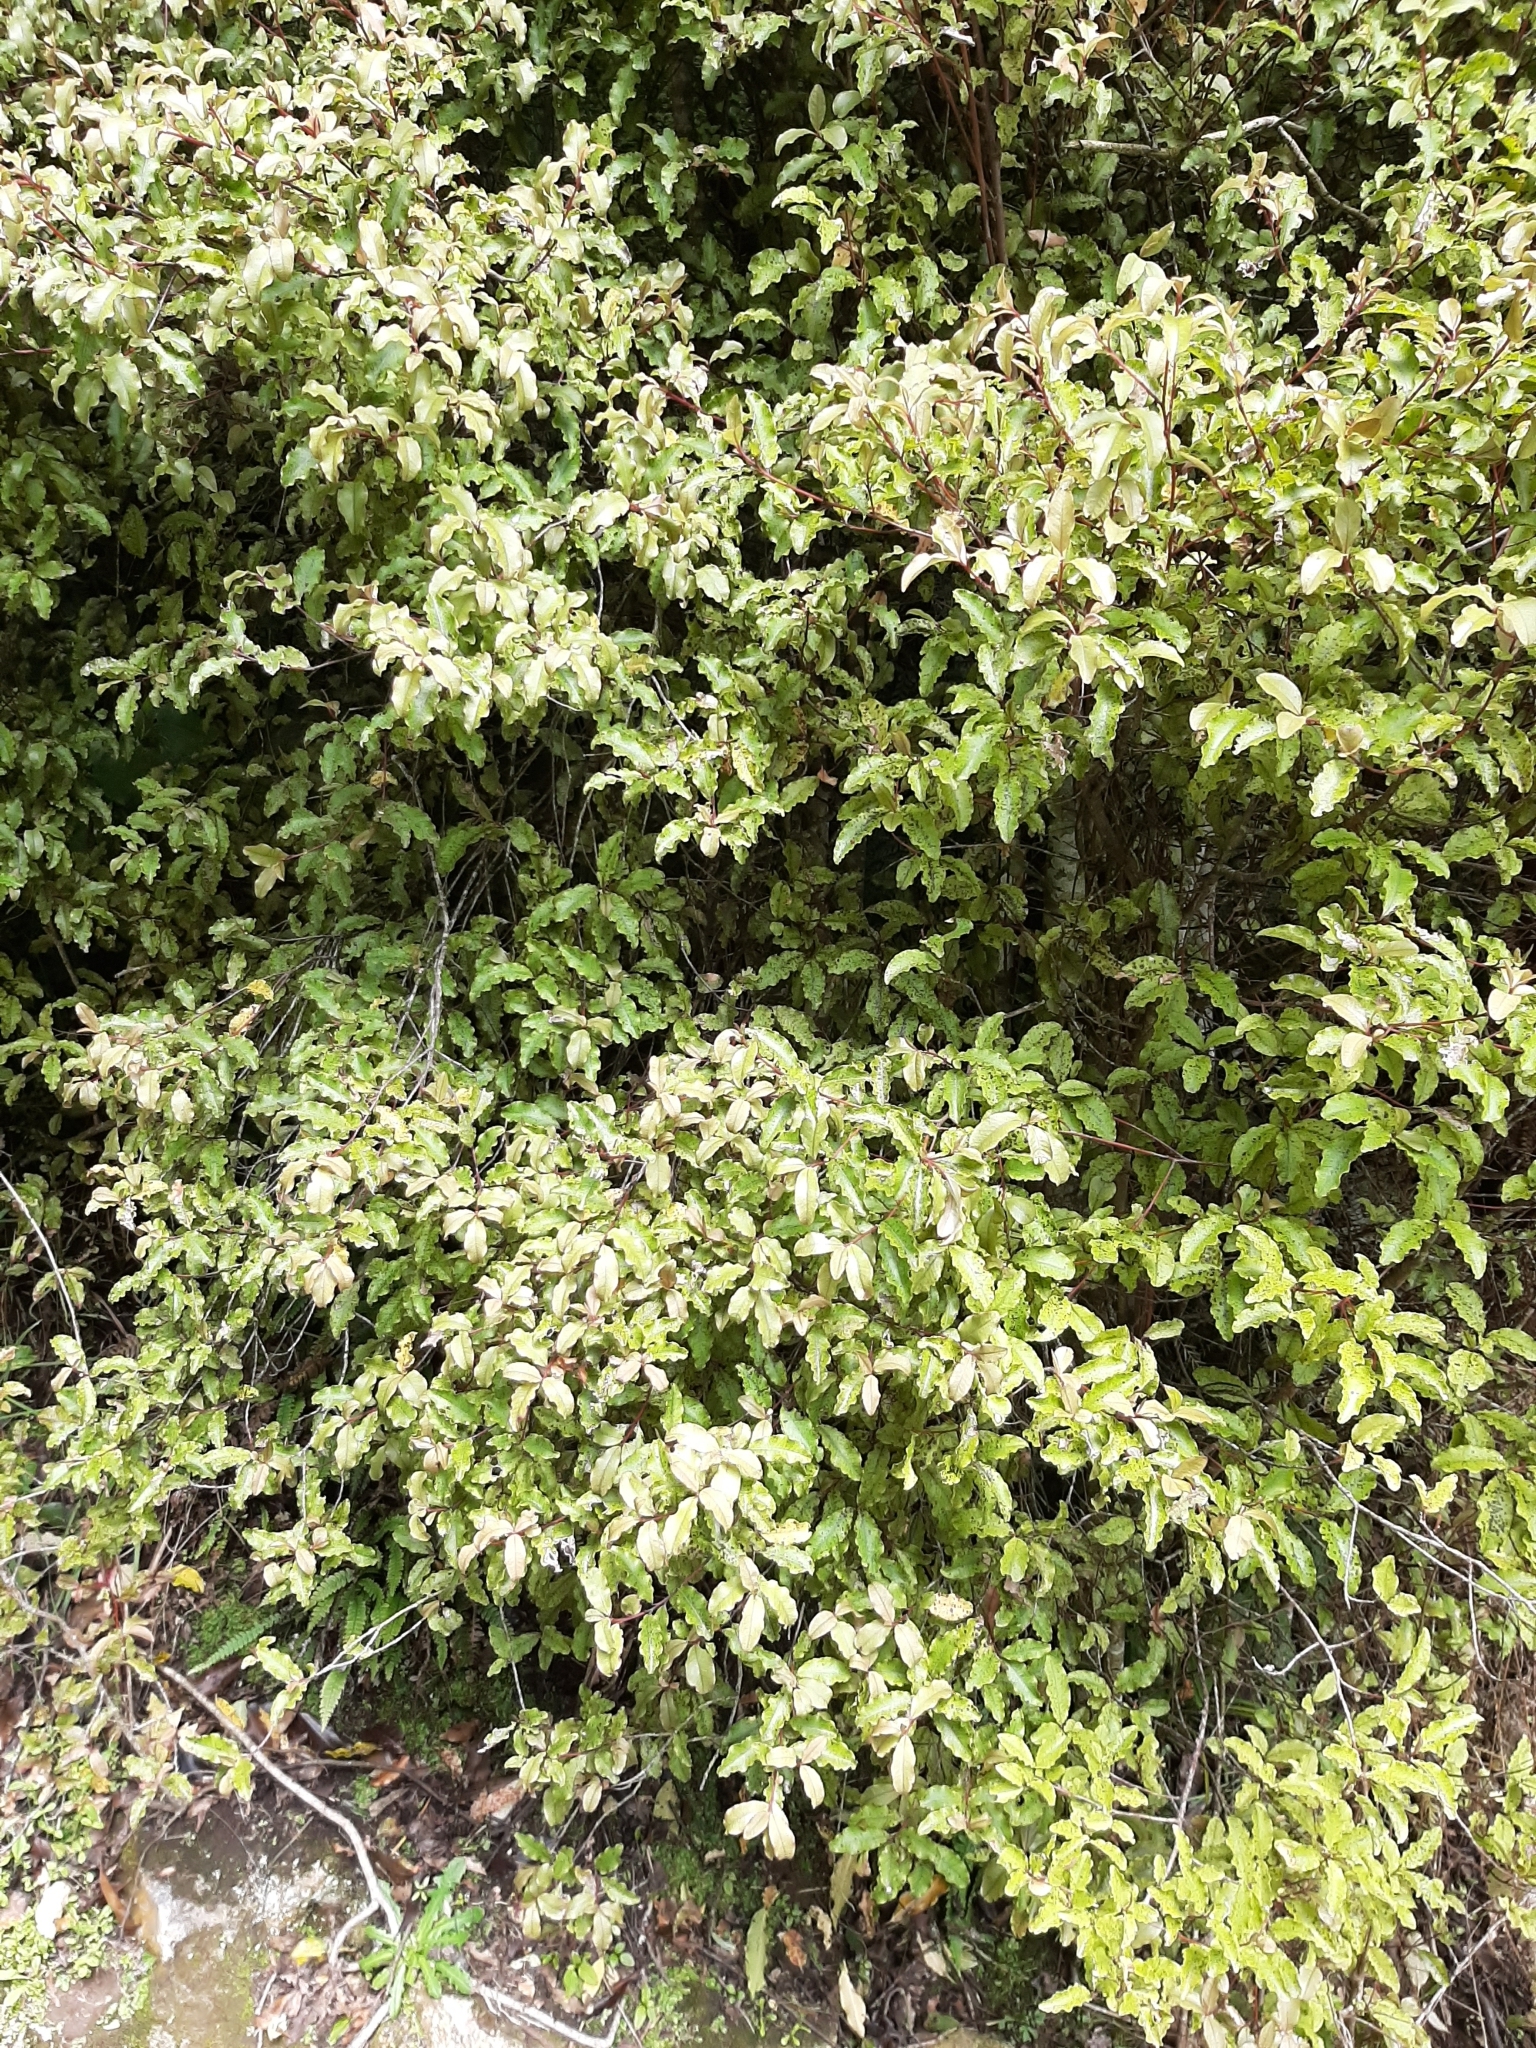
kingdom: Plantae
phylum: Tracheophyta
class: Magnoliopsida
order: Ericales
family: Primulaceae
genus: Myrsine
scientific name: Myrsine australis
